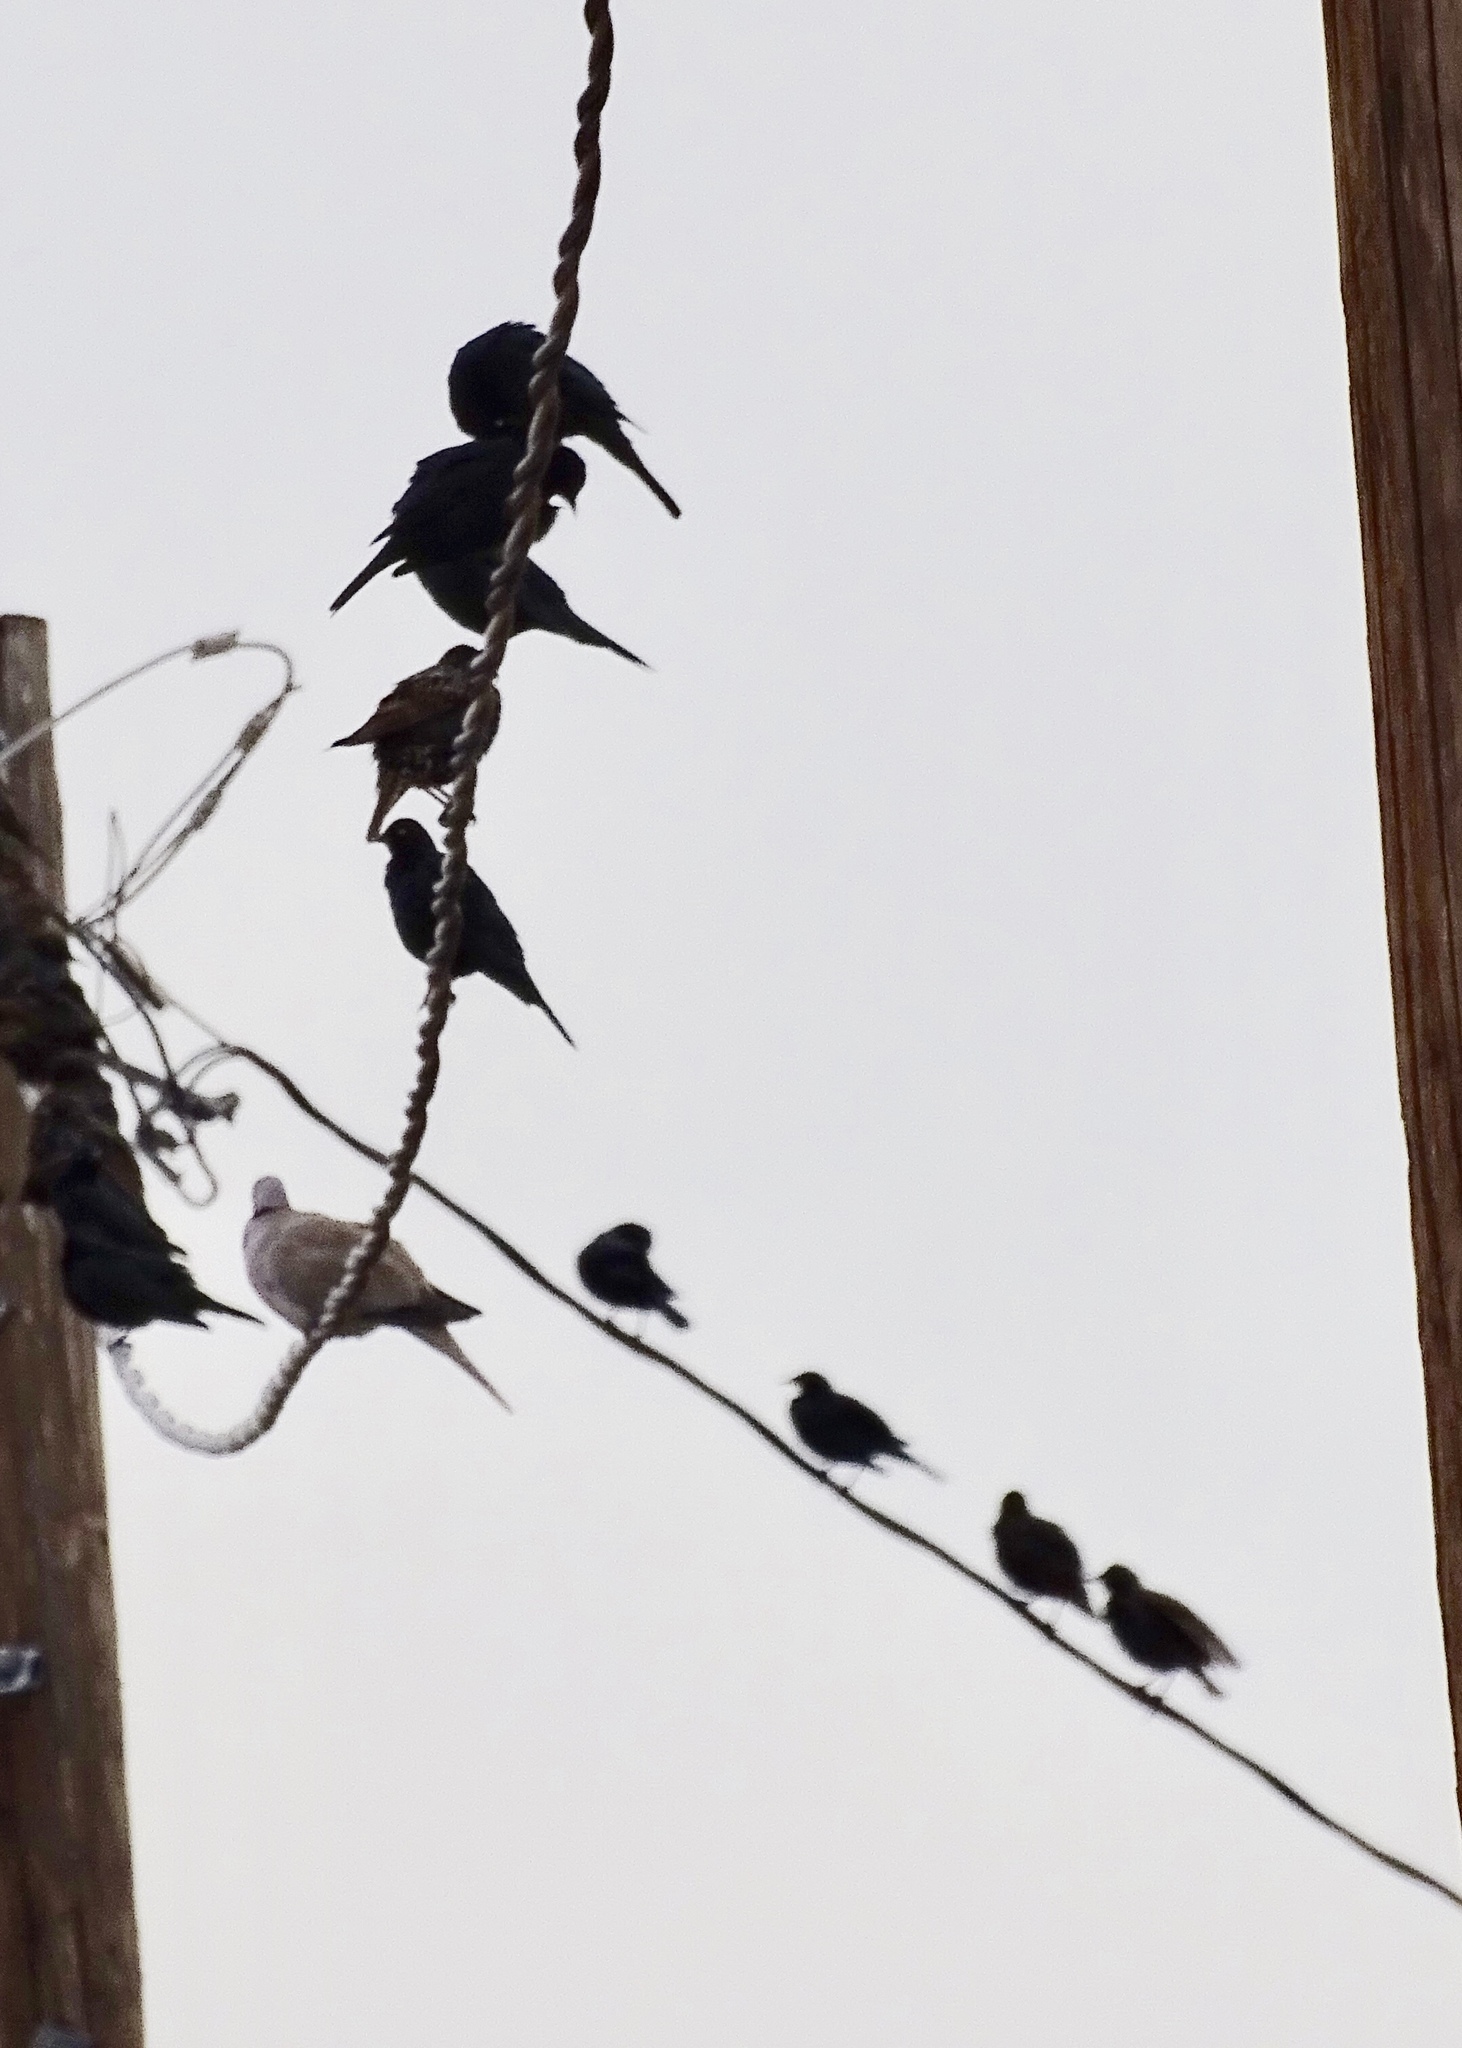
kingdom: Animalia
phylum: Chordata
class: Aves
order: Passeriformes
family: Icteridae
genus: Euphagus
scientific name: Euphagus cyanocephalus
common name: Brewer's blackbird
